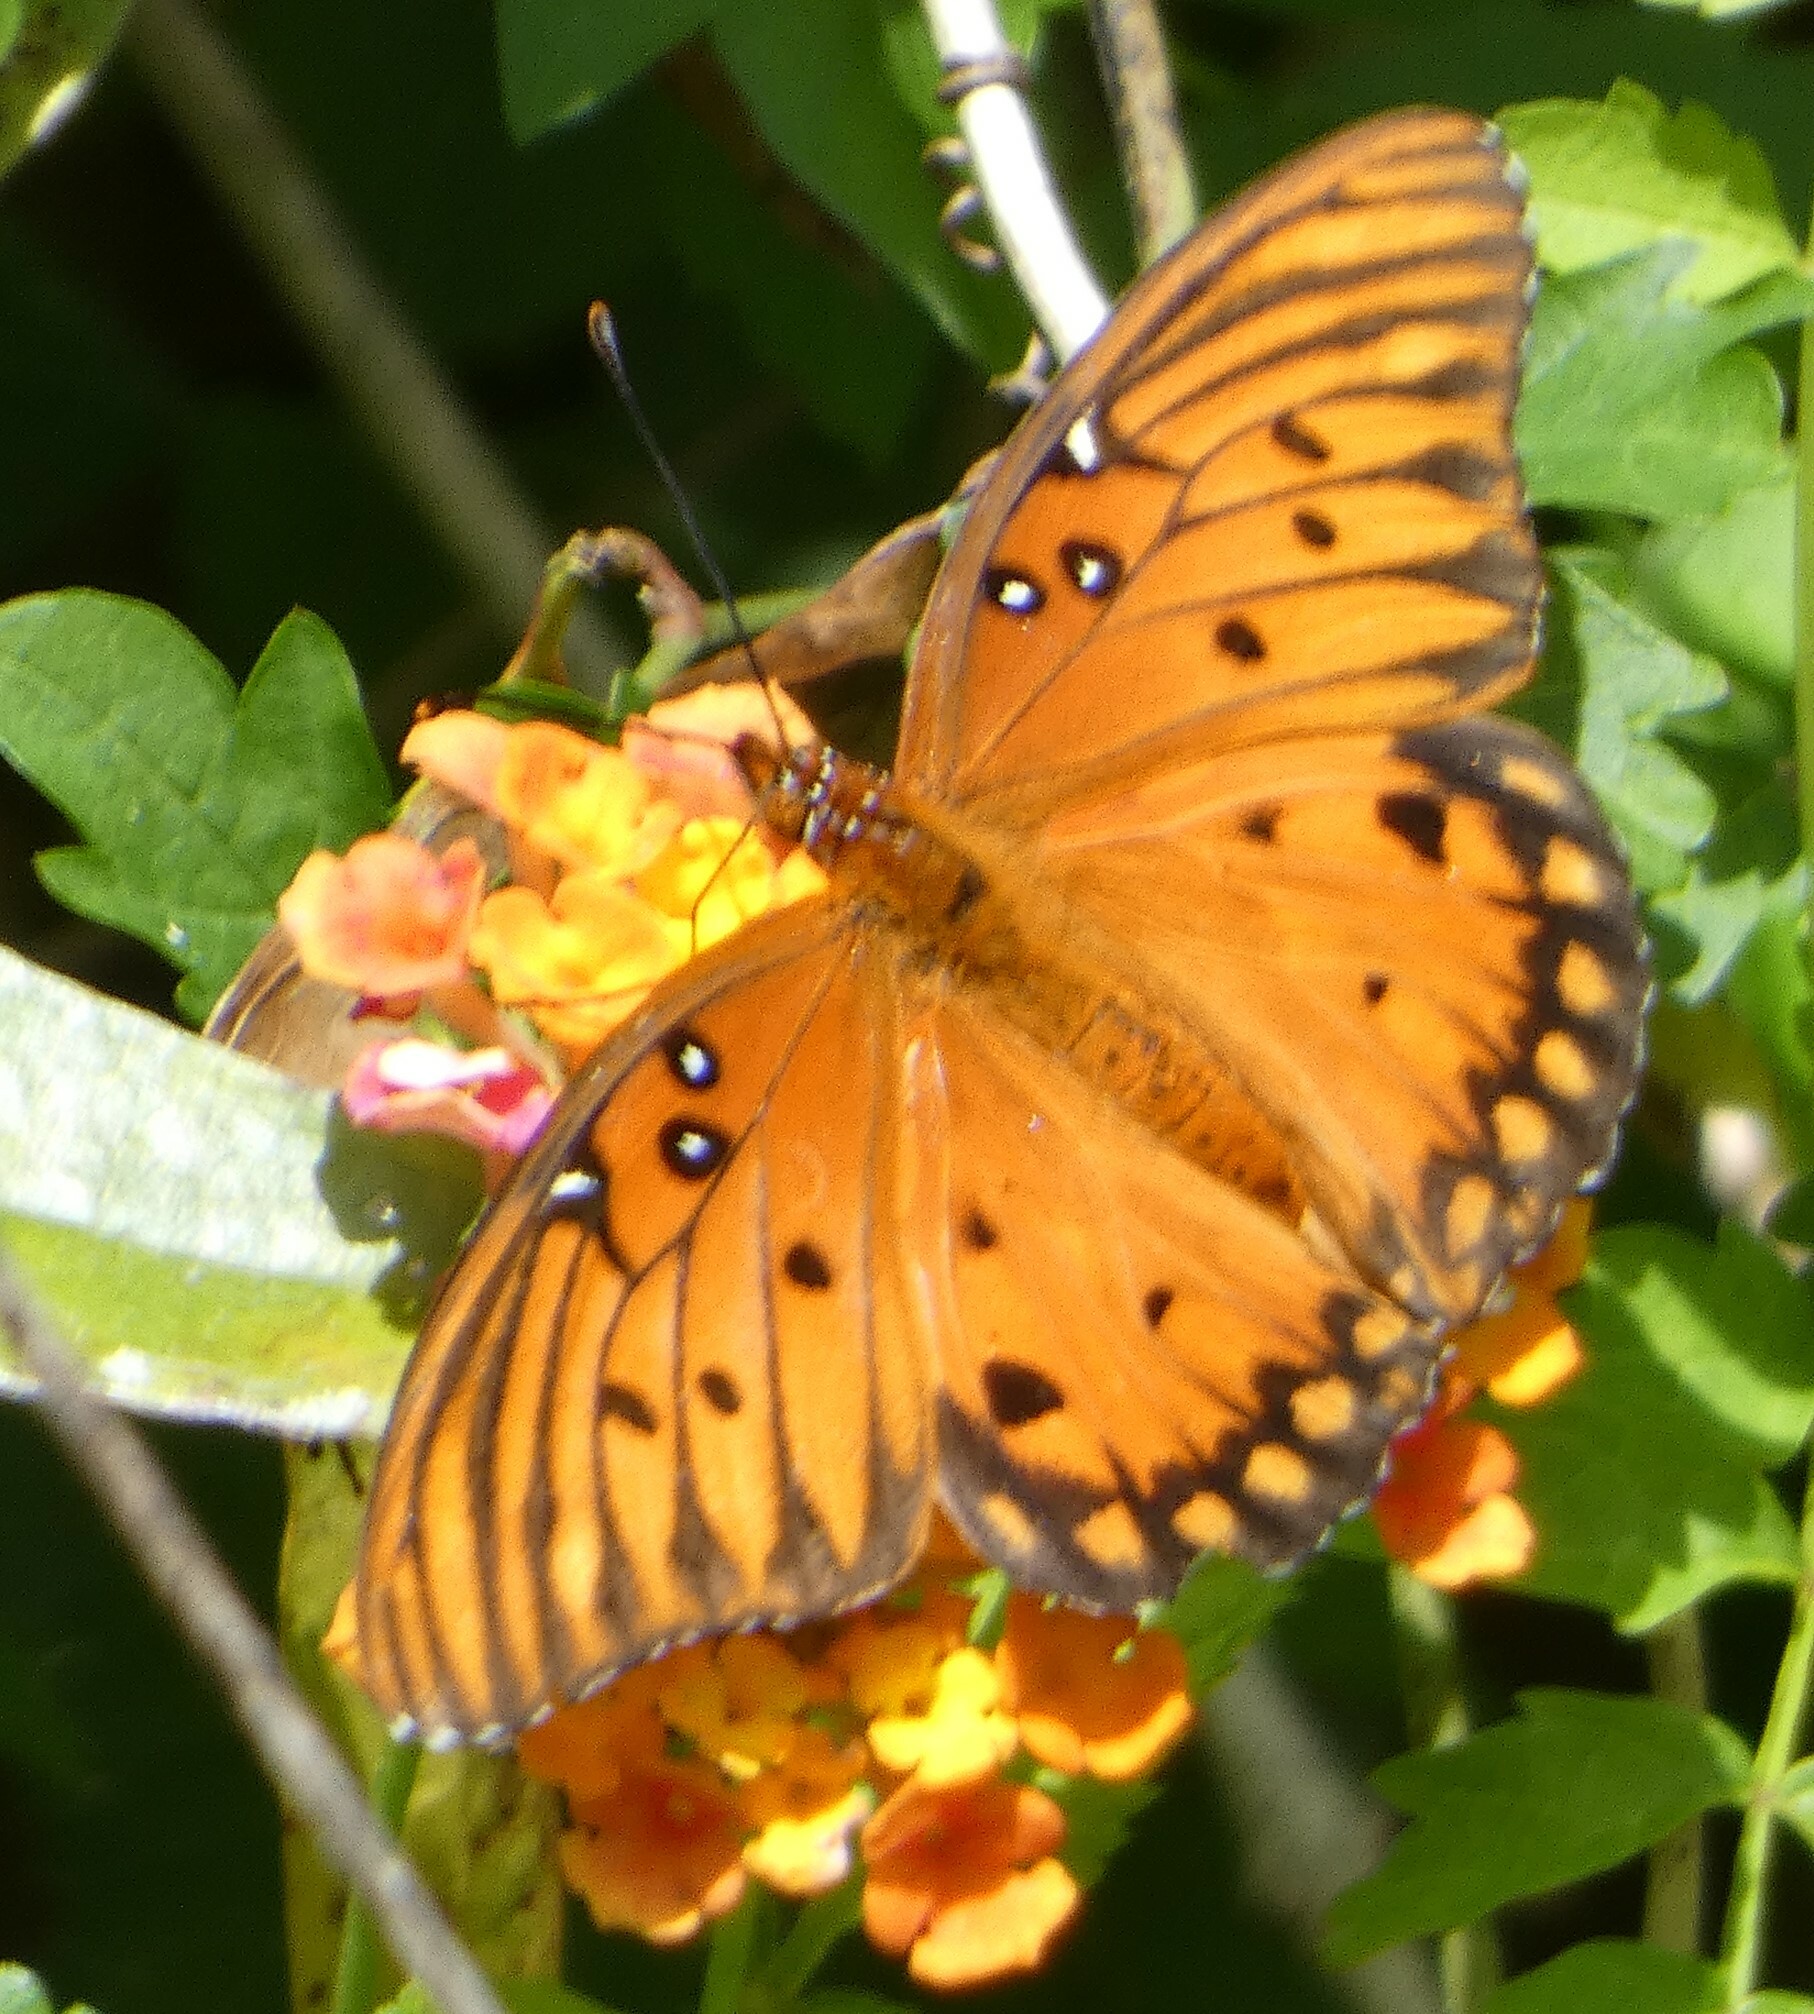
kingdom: Animalia
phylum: Arthropoda
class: Insecta
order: Lepidoptera
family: Nymphalidae
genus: Dione
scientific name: Dione vanillae
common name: Gulf fritillary
